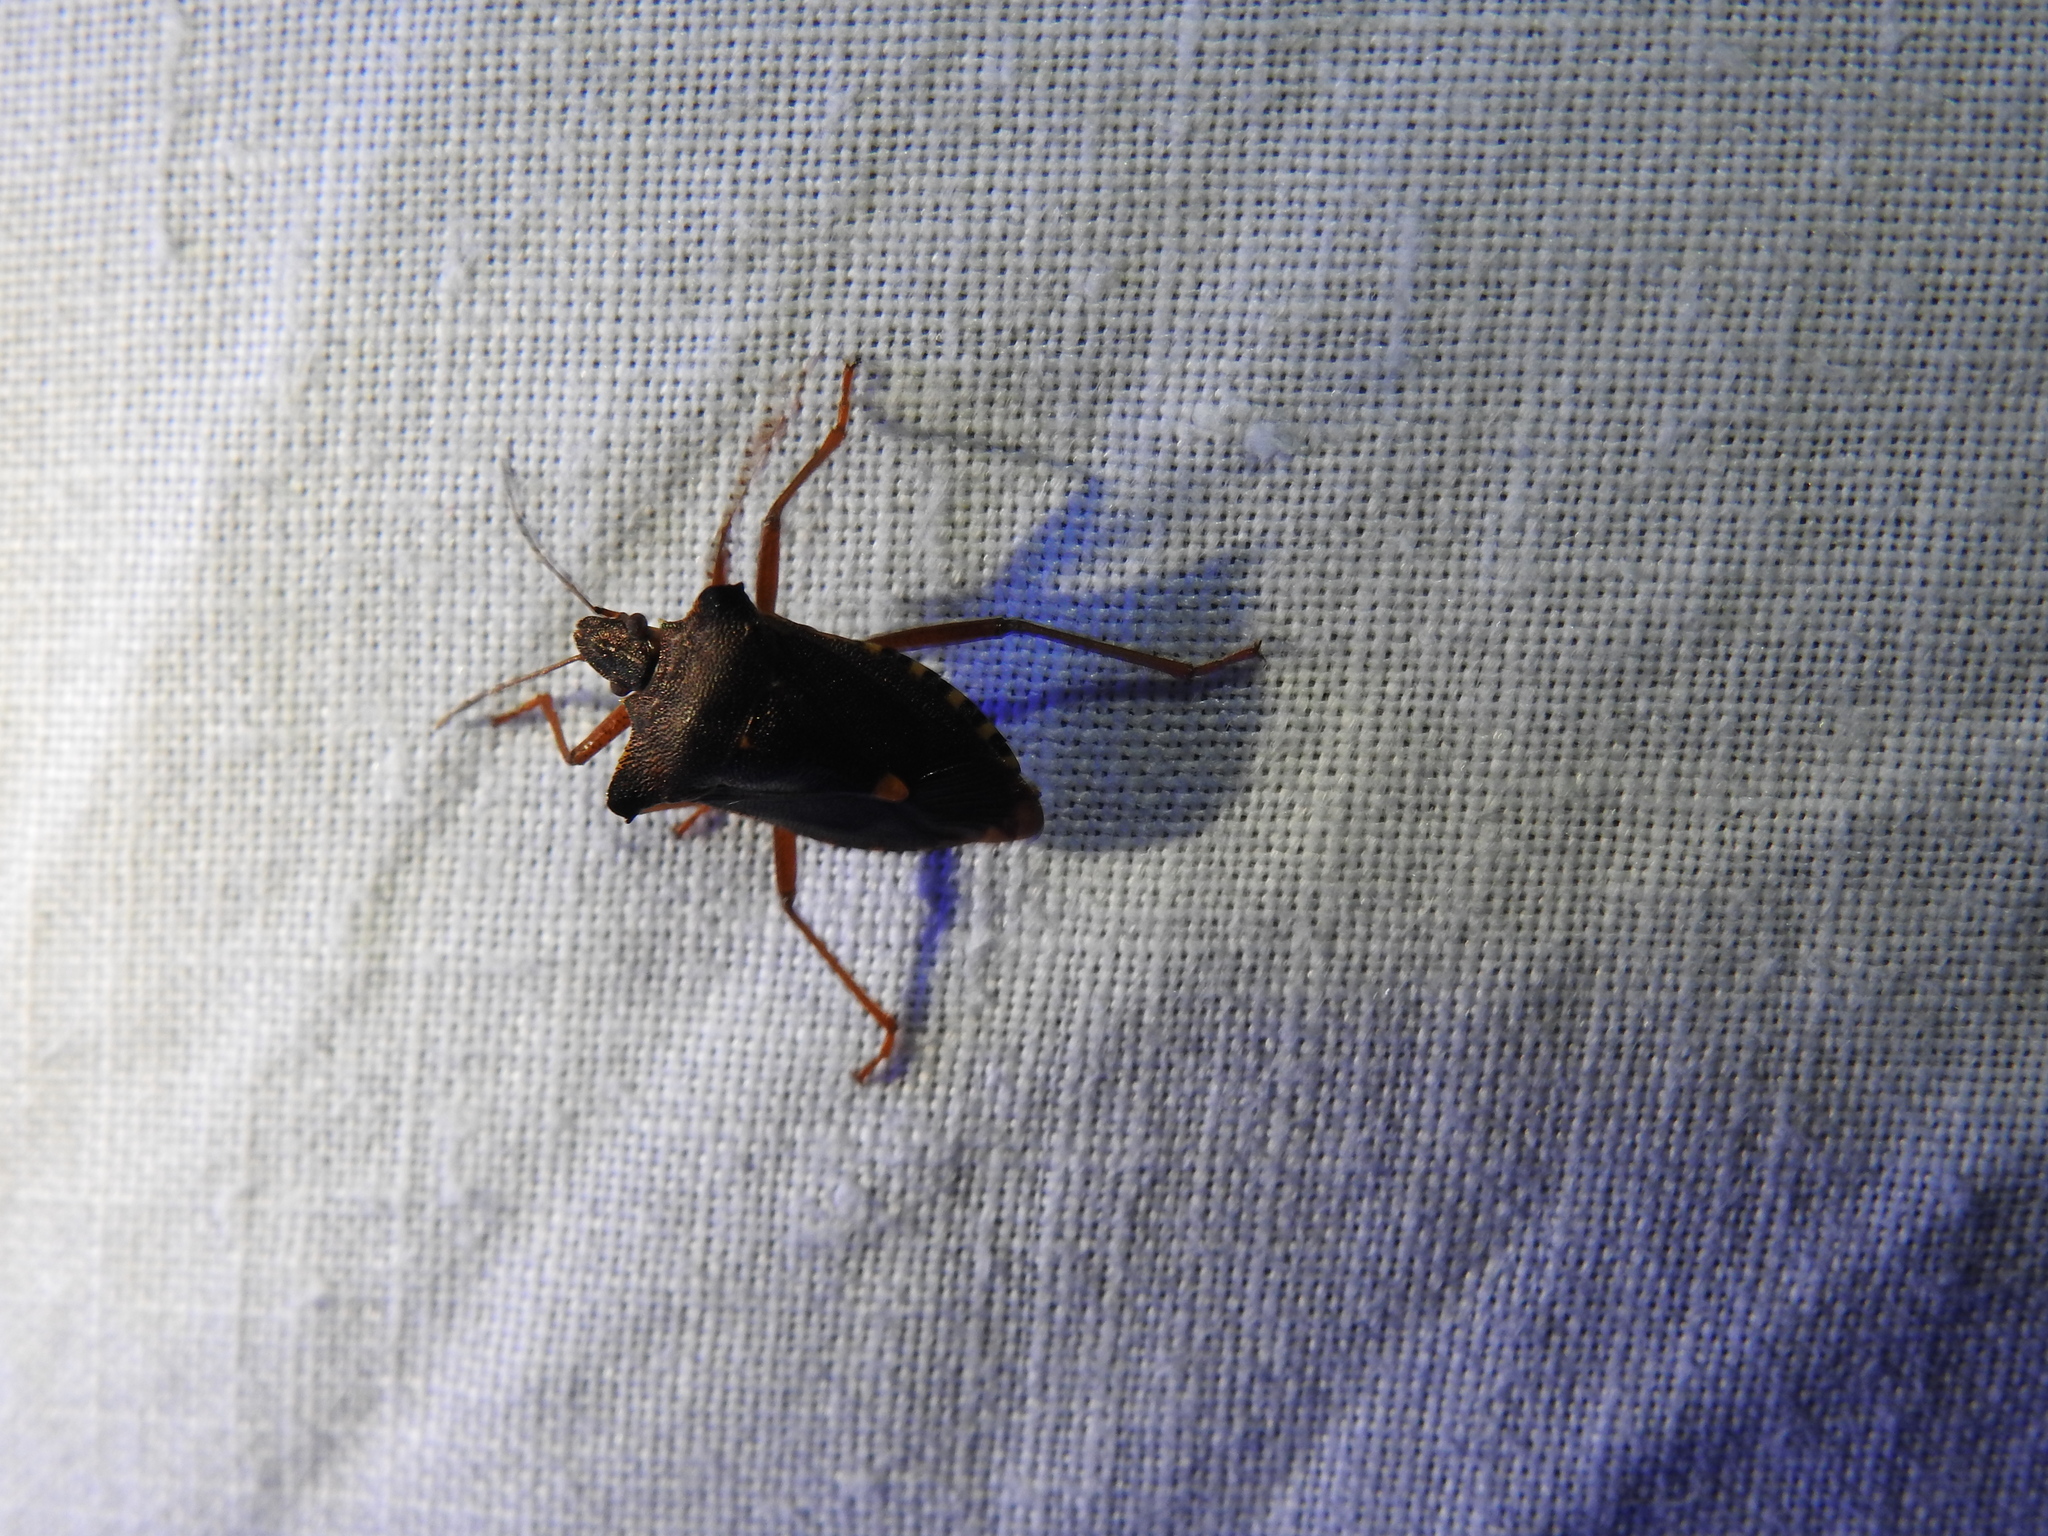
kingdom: Animalia
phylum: Arthropoda
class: Insecta
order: Hemiptera
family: Pentatomidae
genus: Pentatoma
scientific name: Pentatoma rufipes
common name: Forest bug
